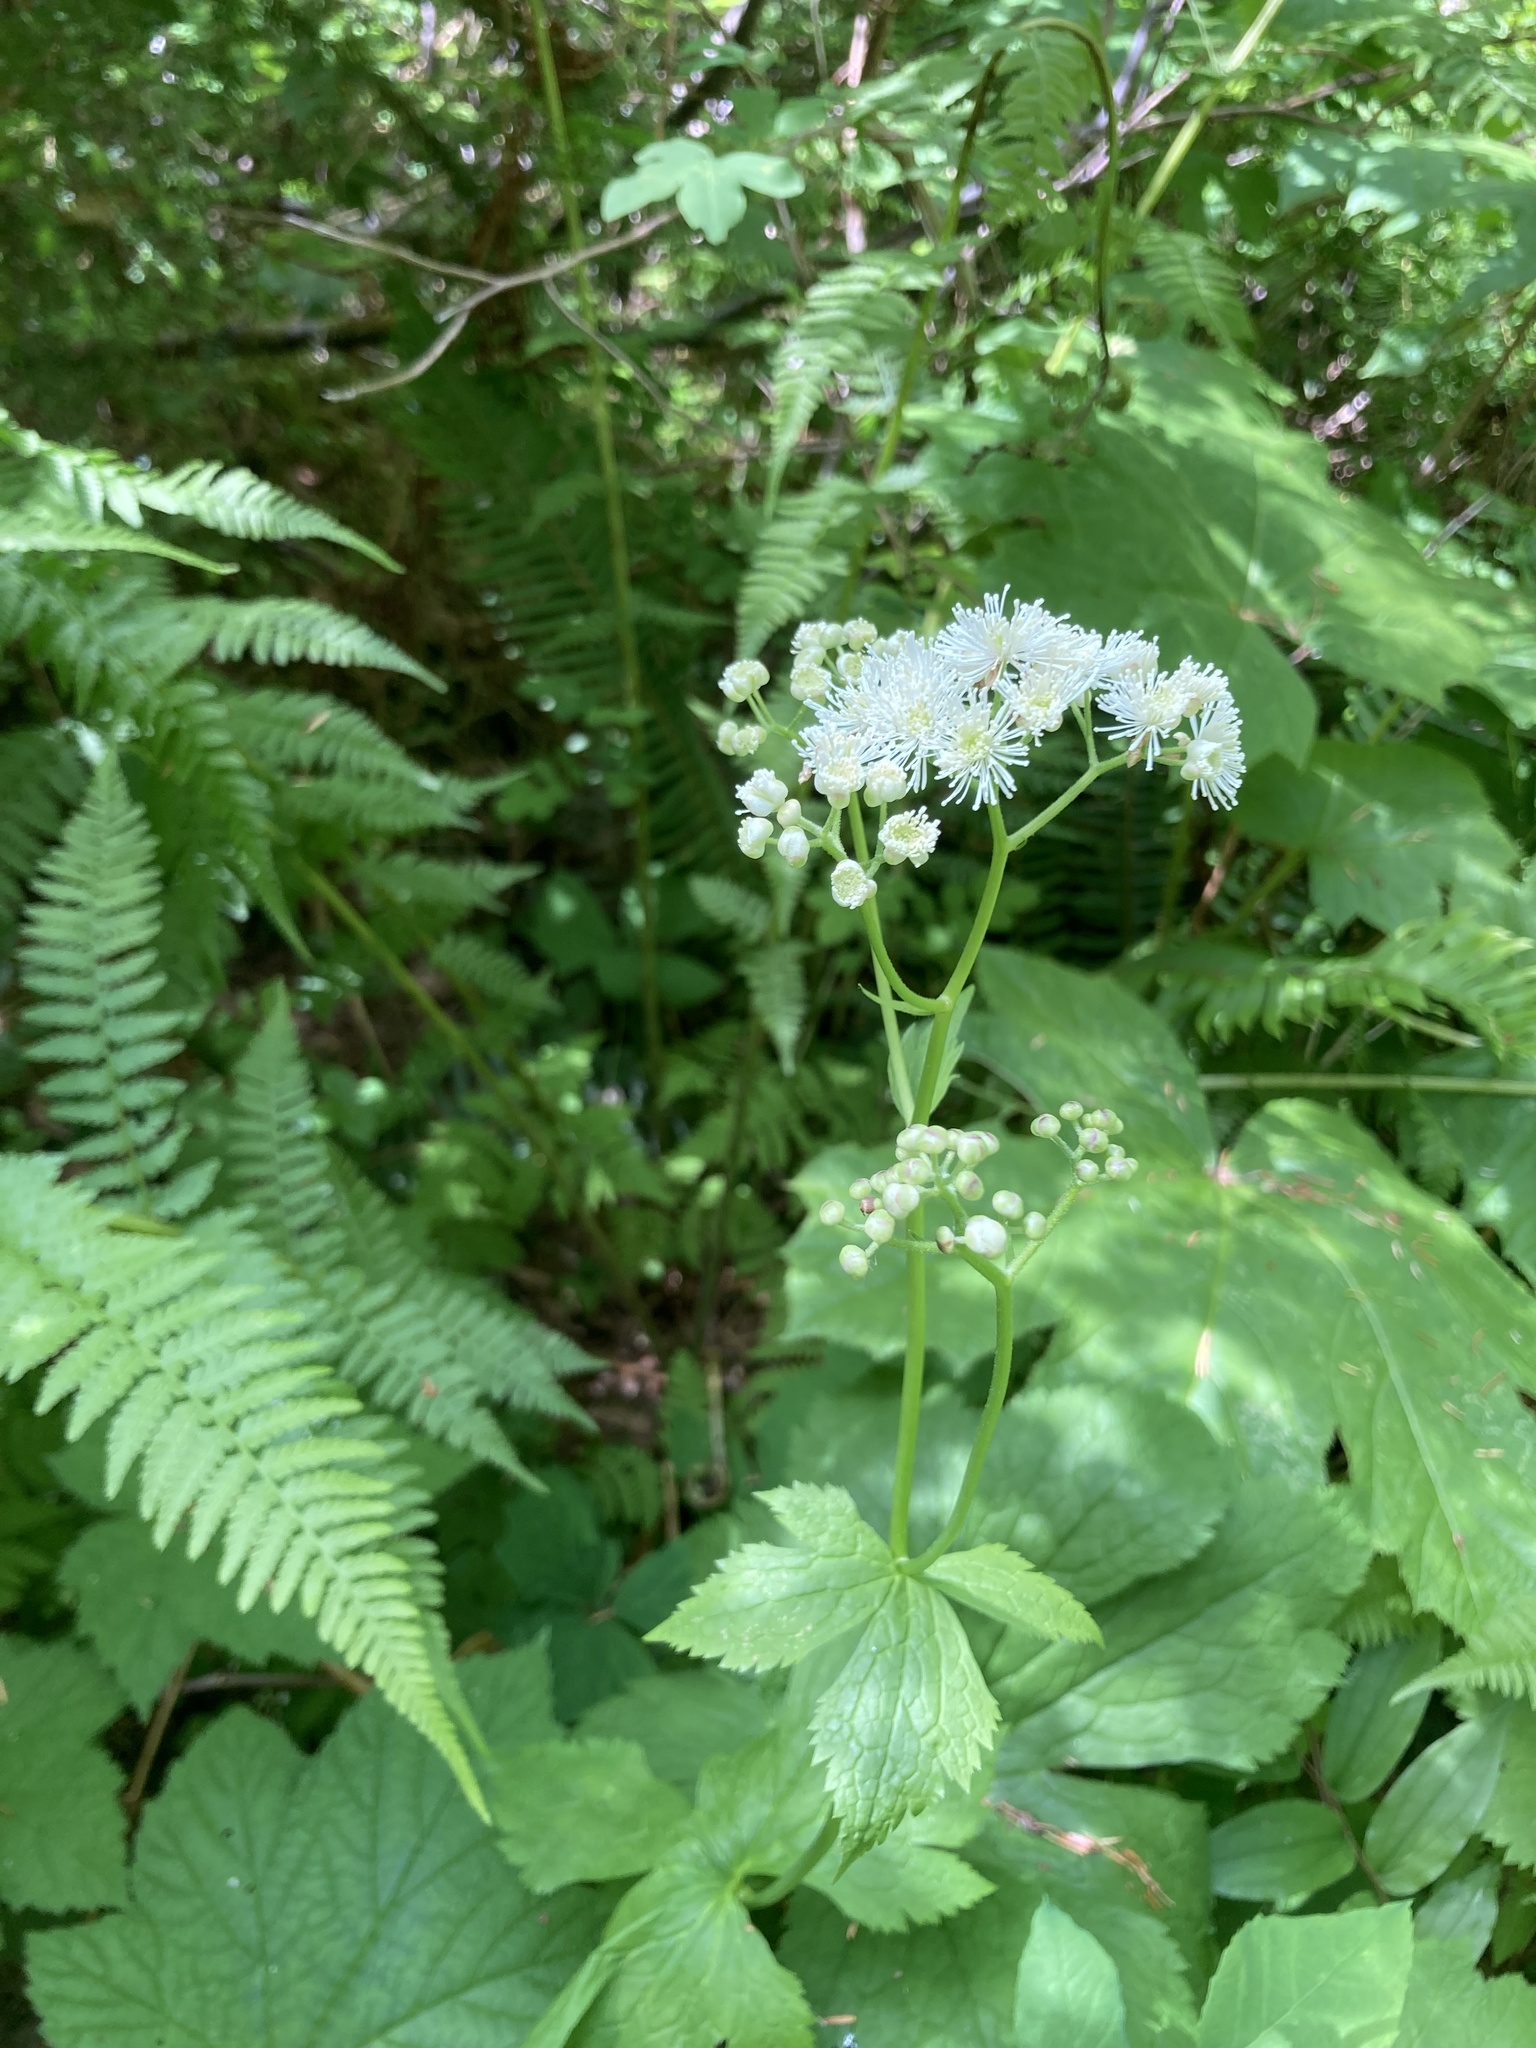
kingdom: Plantae
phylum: Tracheophyta
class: Magnoliopsida
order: Ranunculales
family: Ranunculaceae
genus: Trautvetteria
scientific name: Trautvetteria carolinensis
